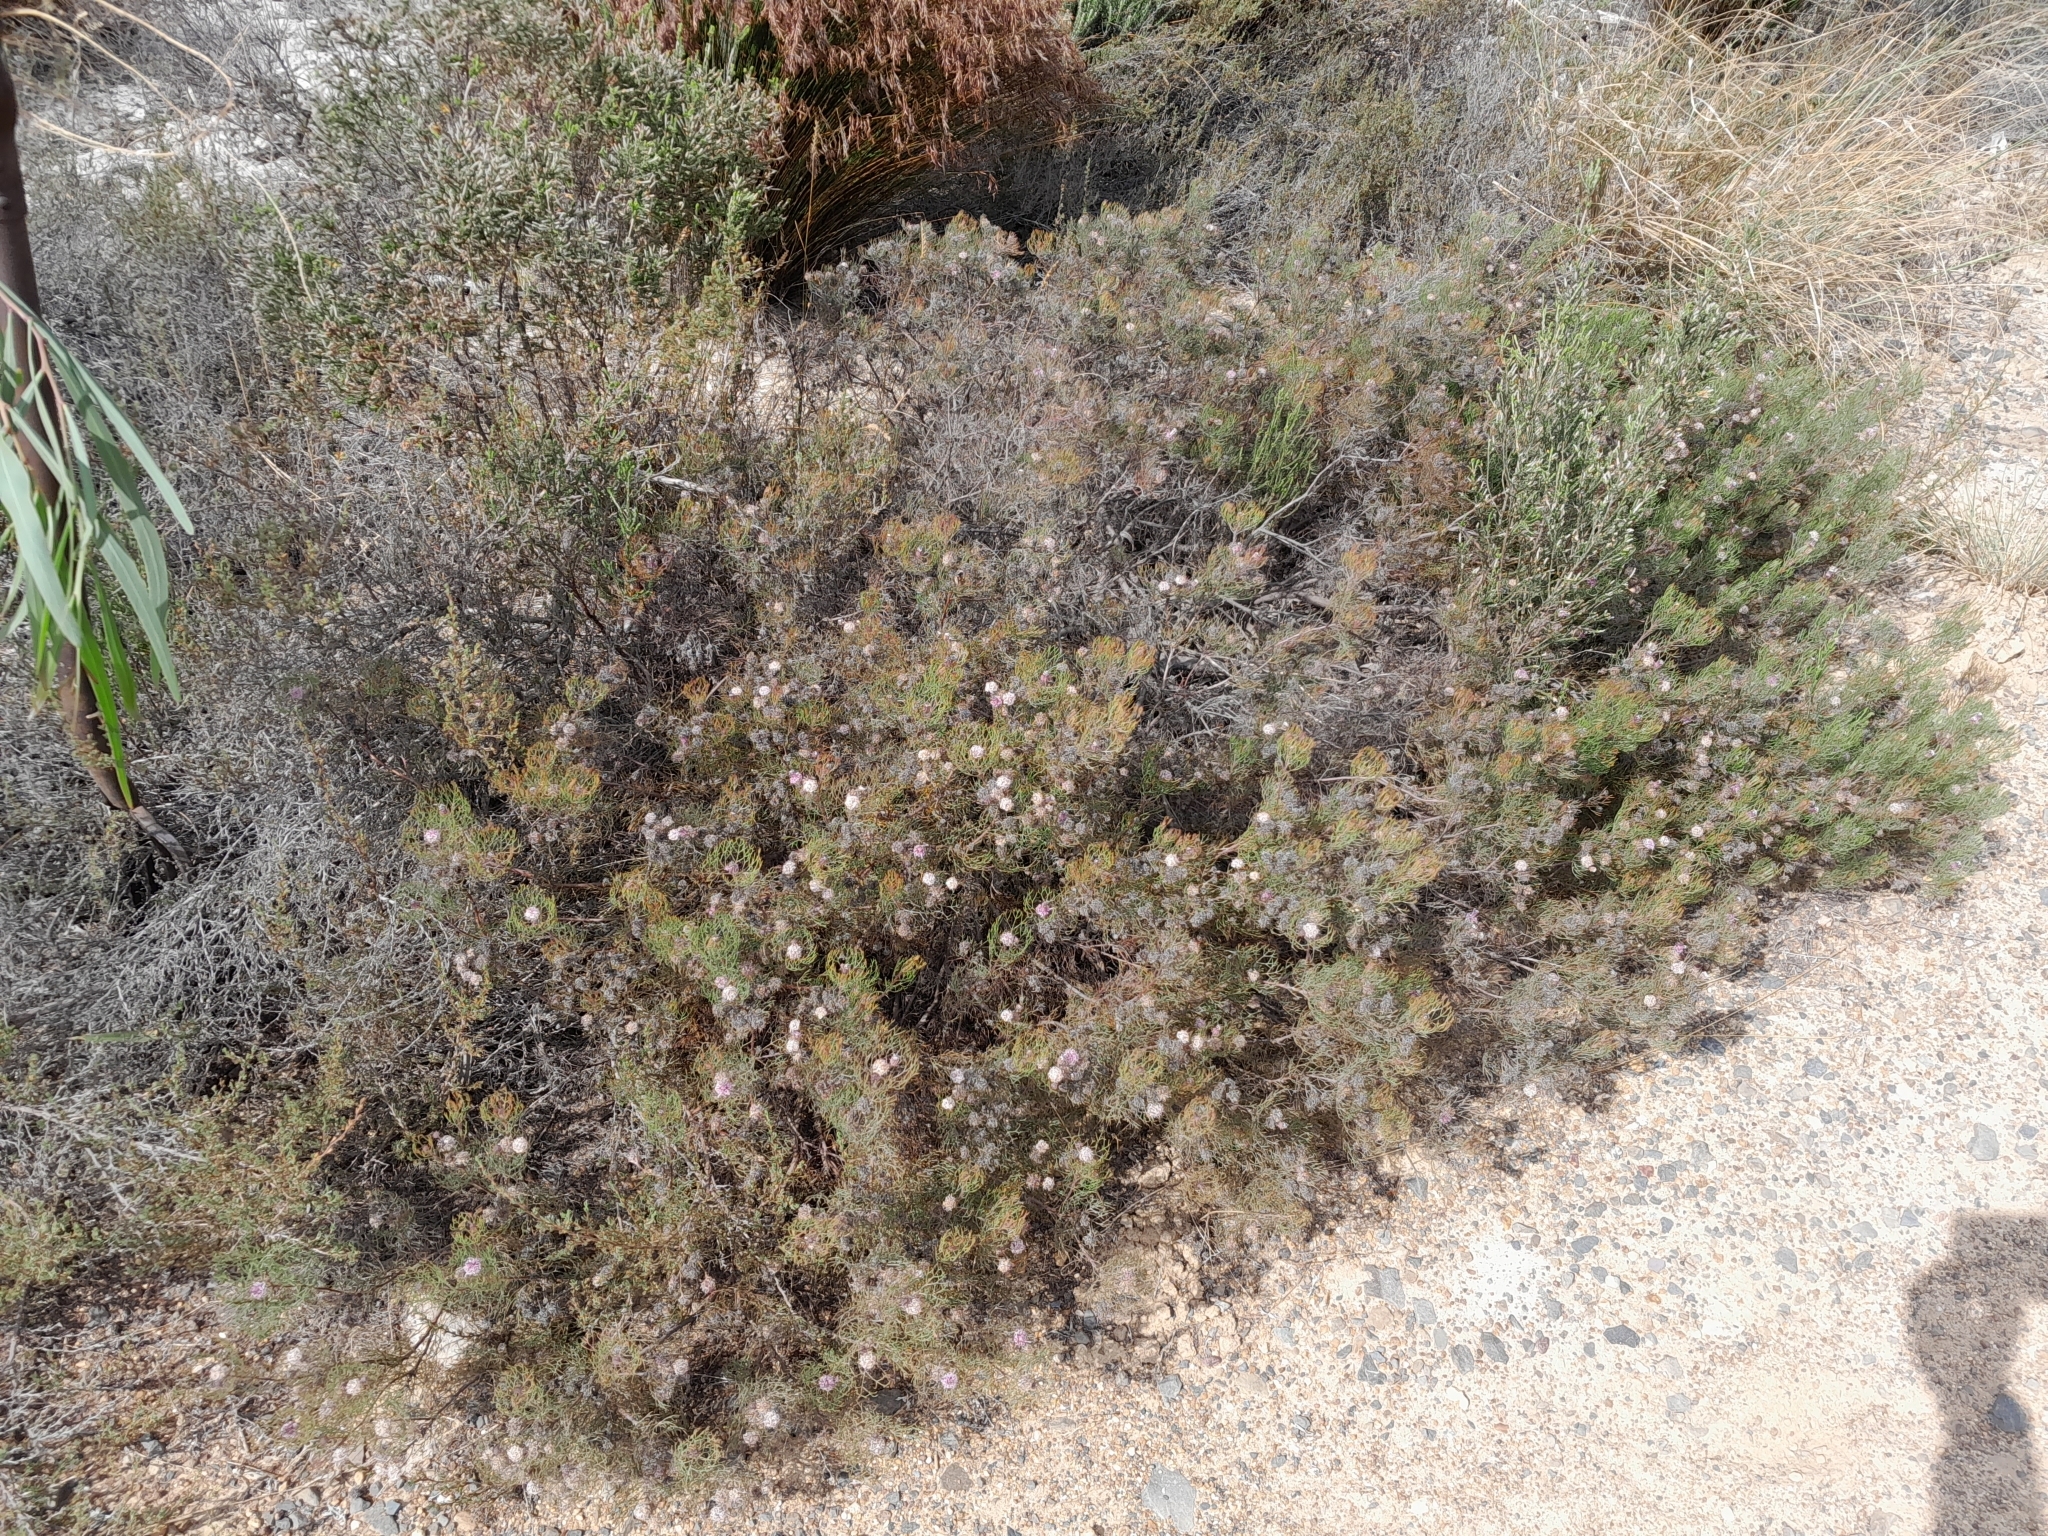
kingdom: Plantae
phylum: Tracheophyta
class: Magnoliopsida
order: Proteales
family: Proteaceae
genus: Serruria
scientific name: Serruria fasciflora
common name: Common pin spiderhead
